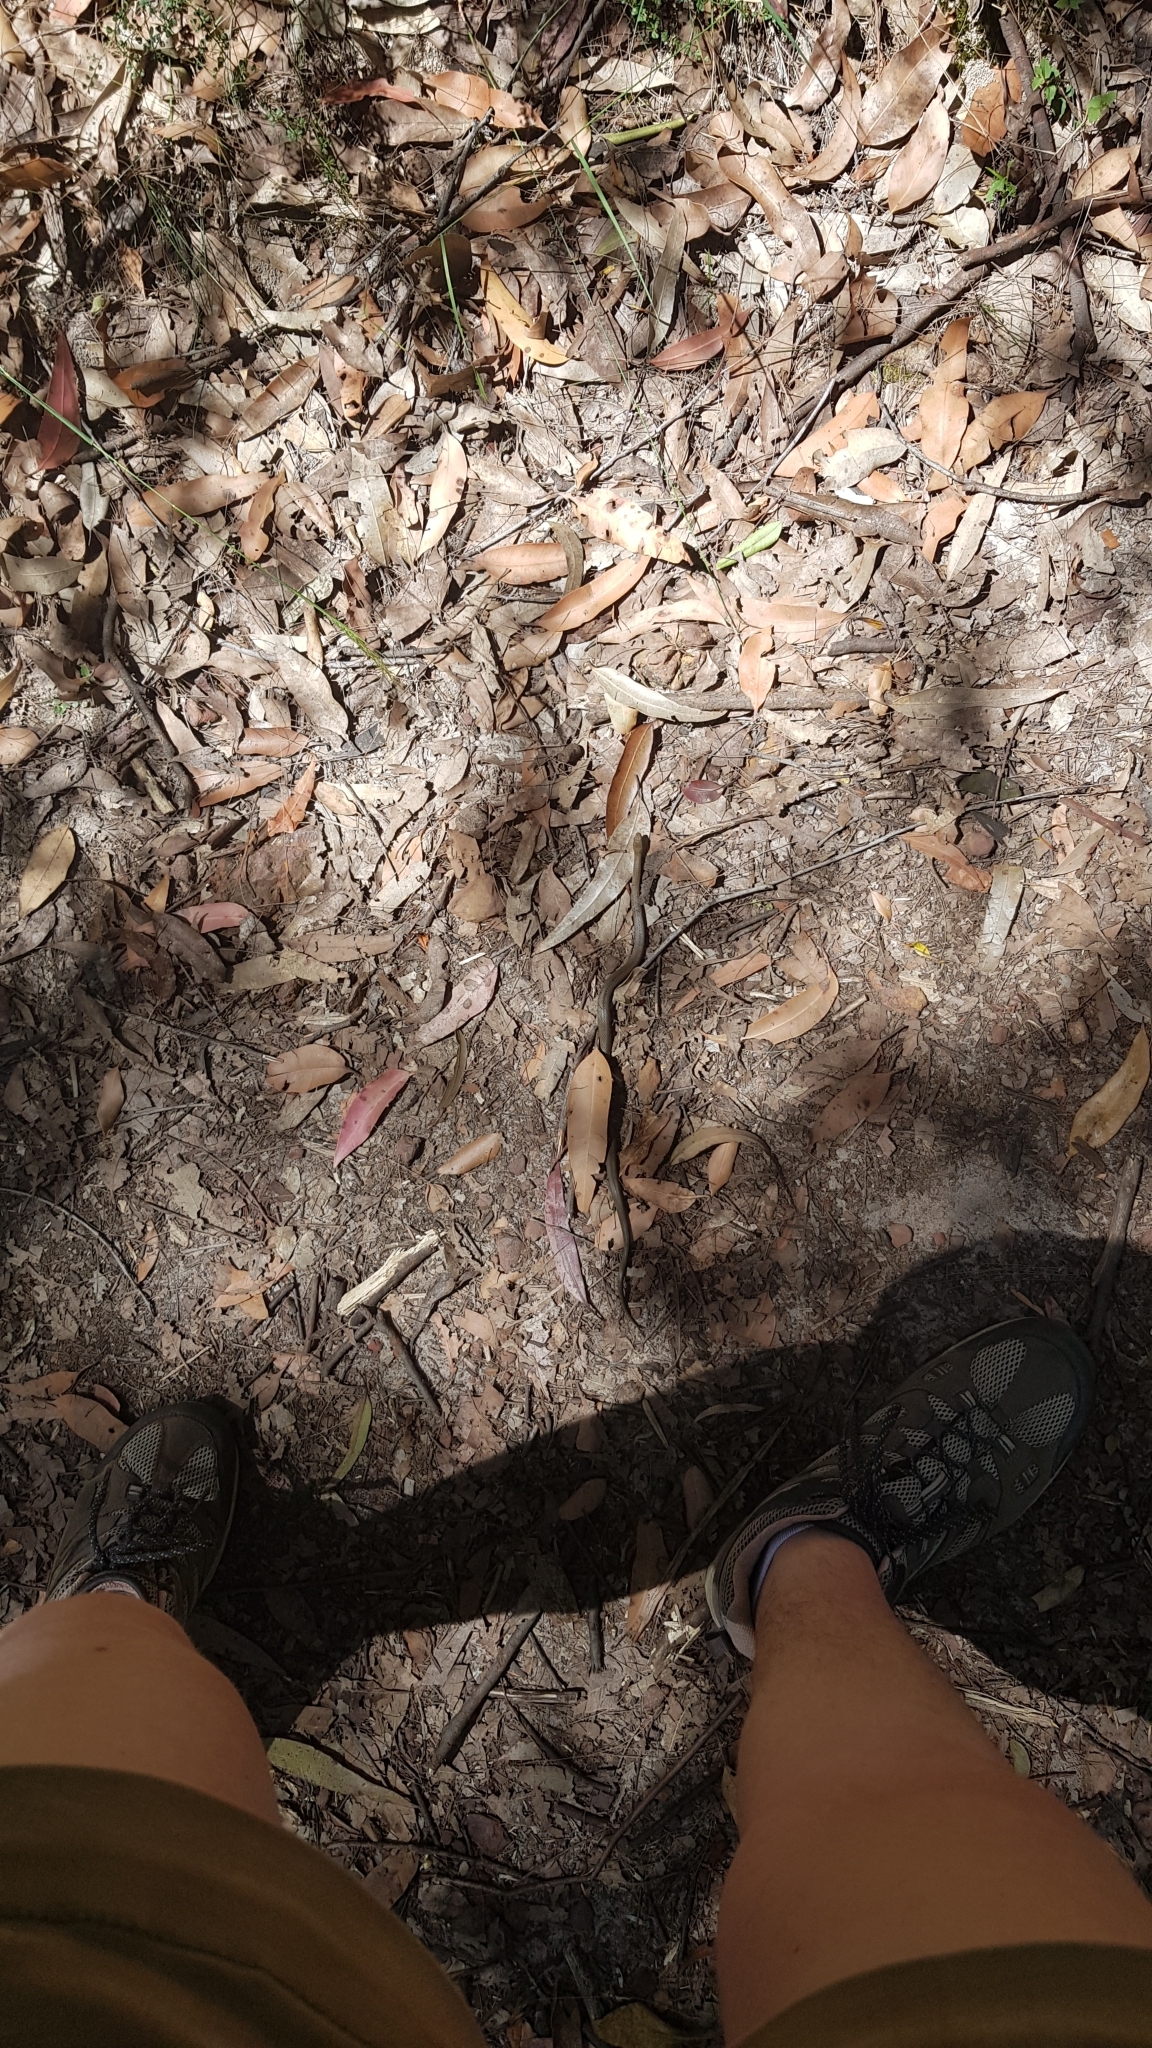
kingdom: Animalia
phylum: Chordata
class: Squamata
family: Elapidae
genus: Hemiaspis
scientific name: Hemiaspis signata
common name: Black-bellied swamp snake
